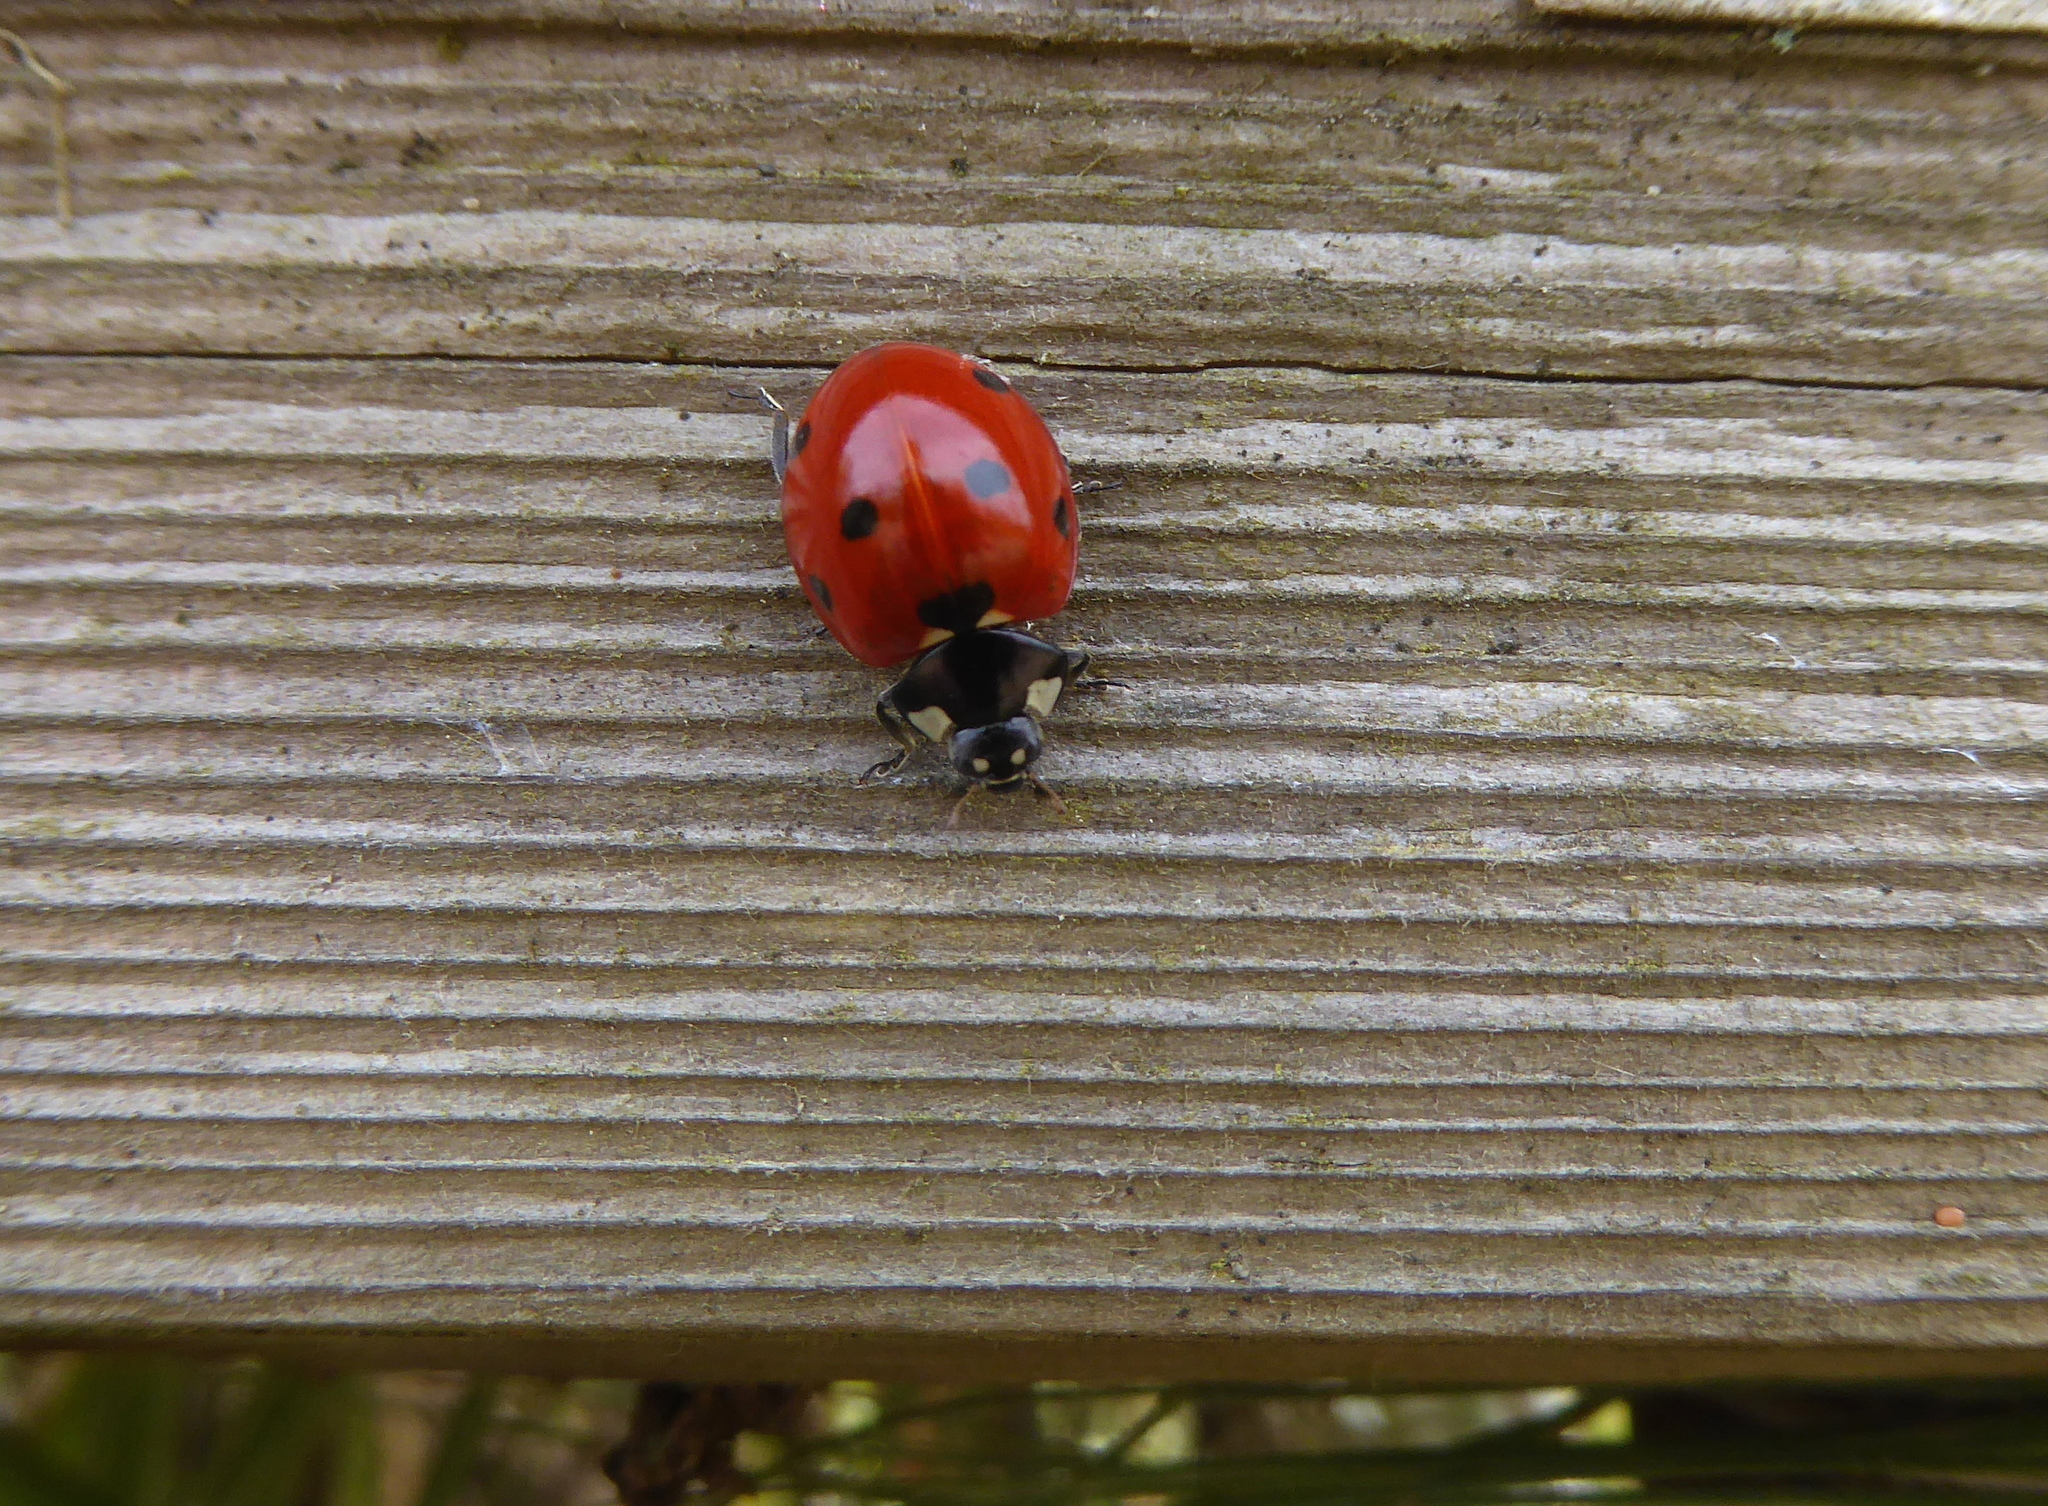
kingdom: Animalia
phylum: Arthropoda
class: Insecta
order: Coleoptera
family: Coccinellidae
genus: Coccinella
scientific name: Coccinella septempunctata
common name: Sevenspotted lady beetle
